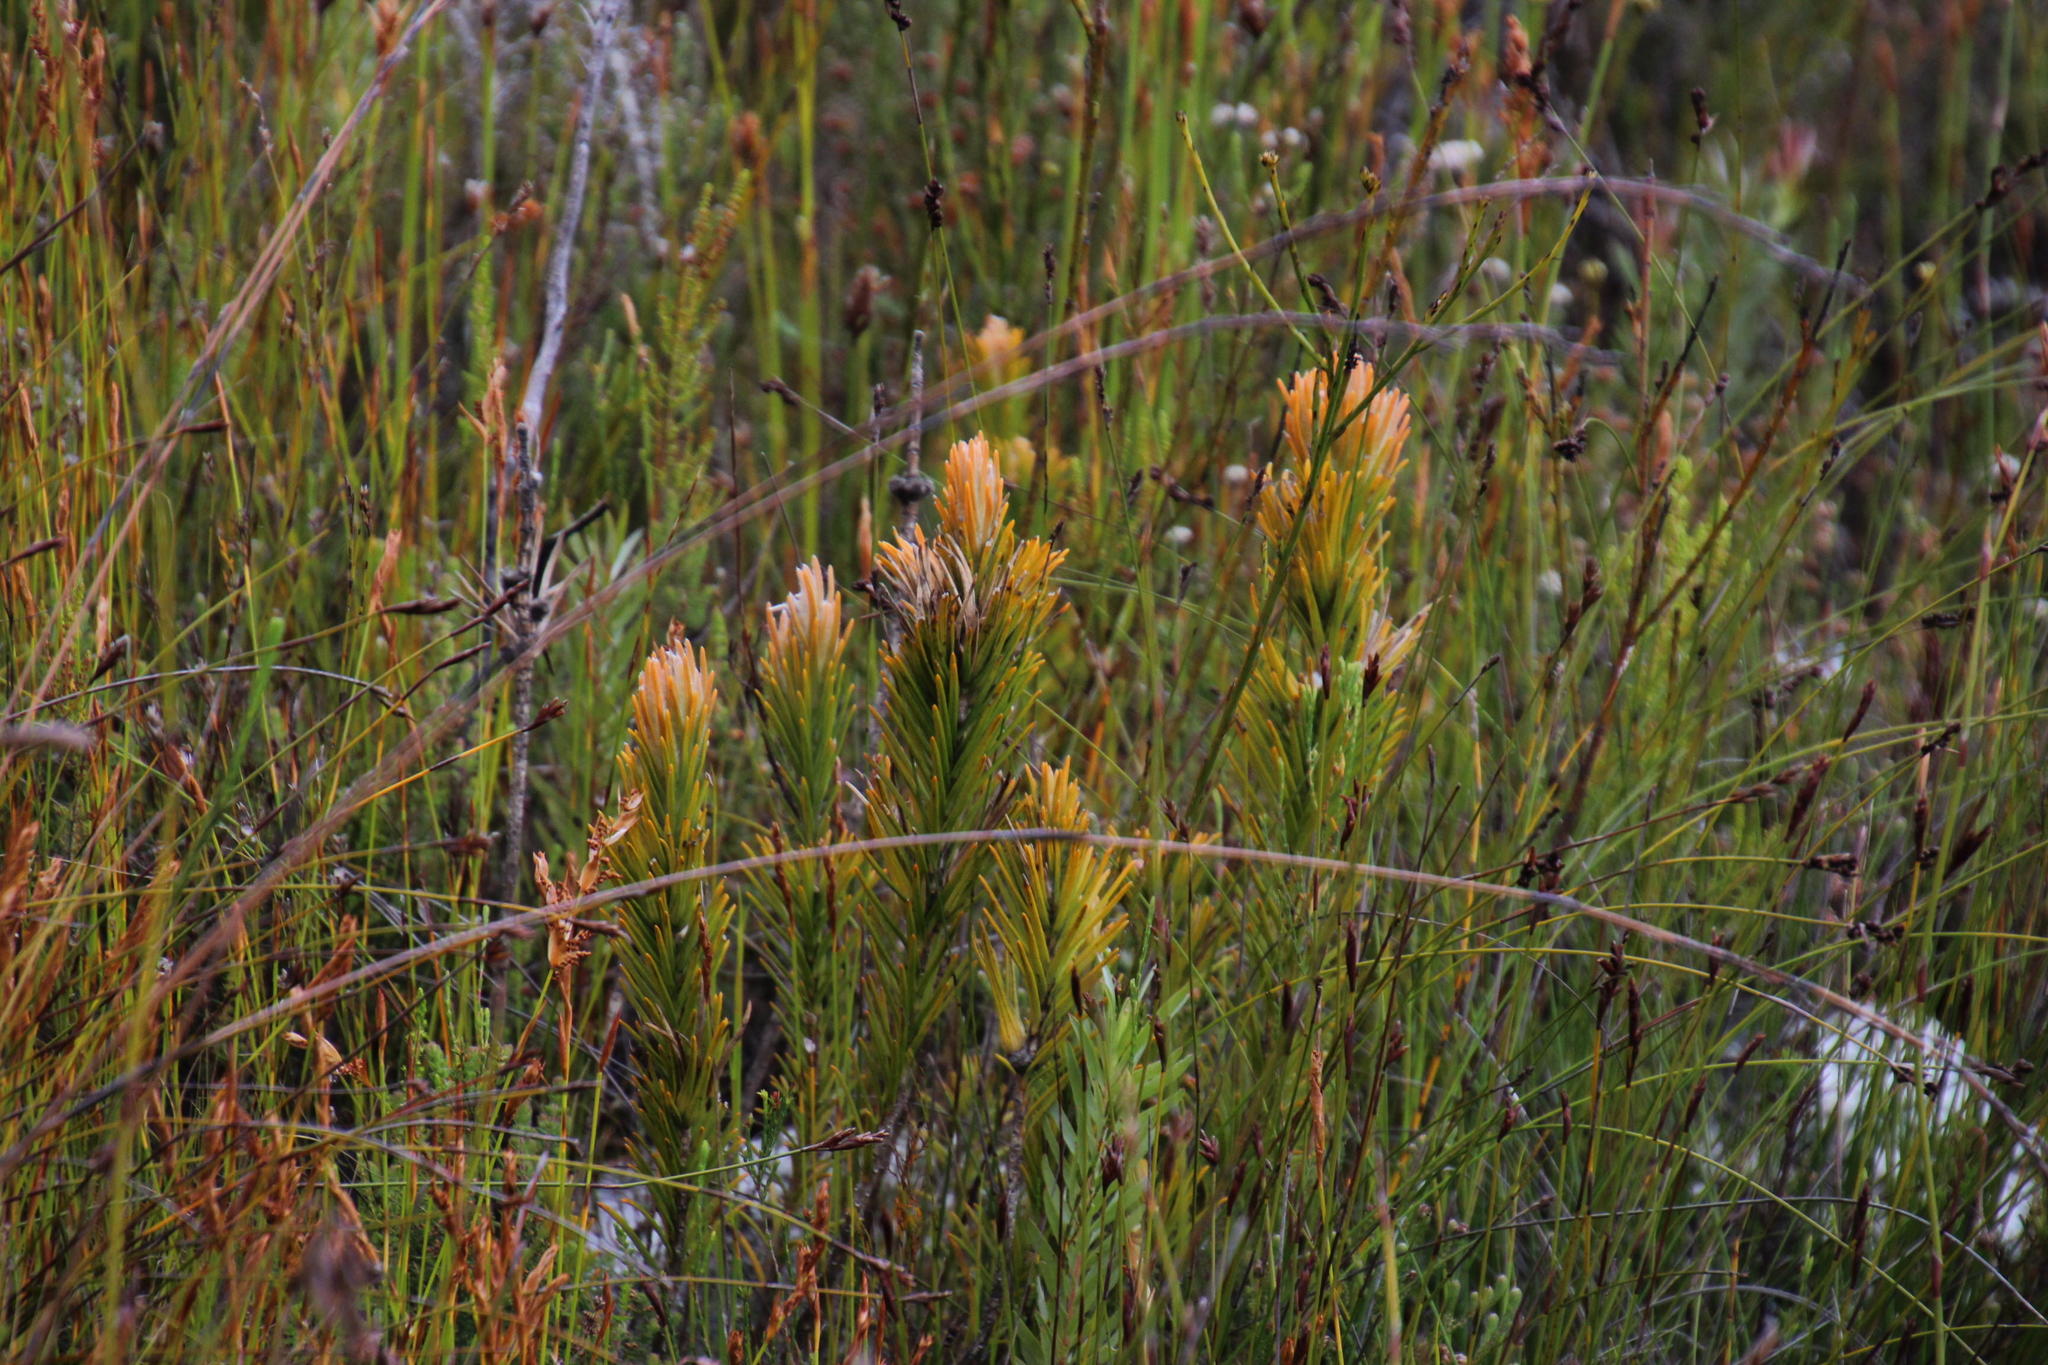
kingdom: Plantae
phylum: Tracheophyta
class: Magnoliopsida
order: Lamiales
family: Stilbaceae
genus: Retzia
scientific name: Retzia capensis
